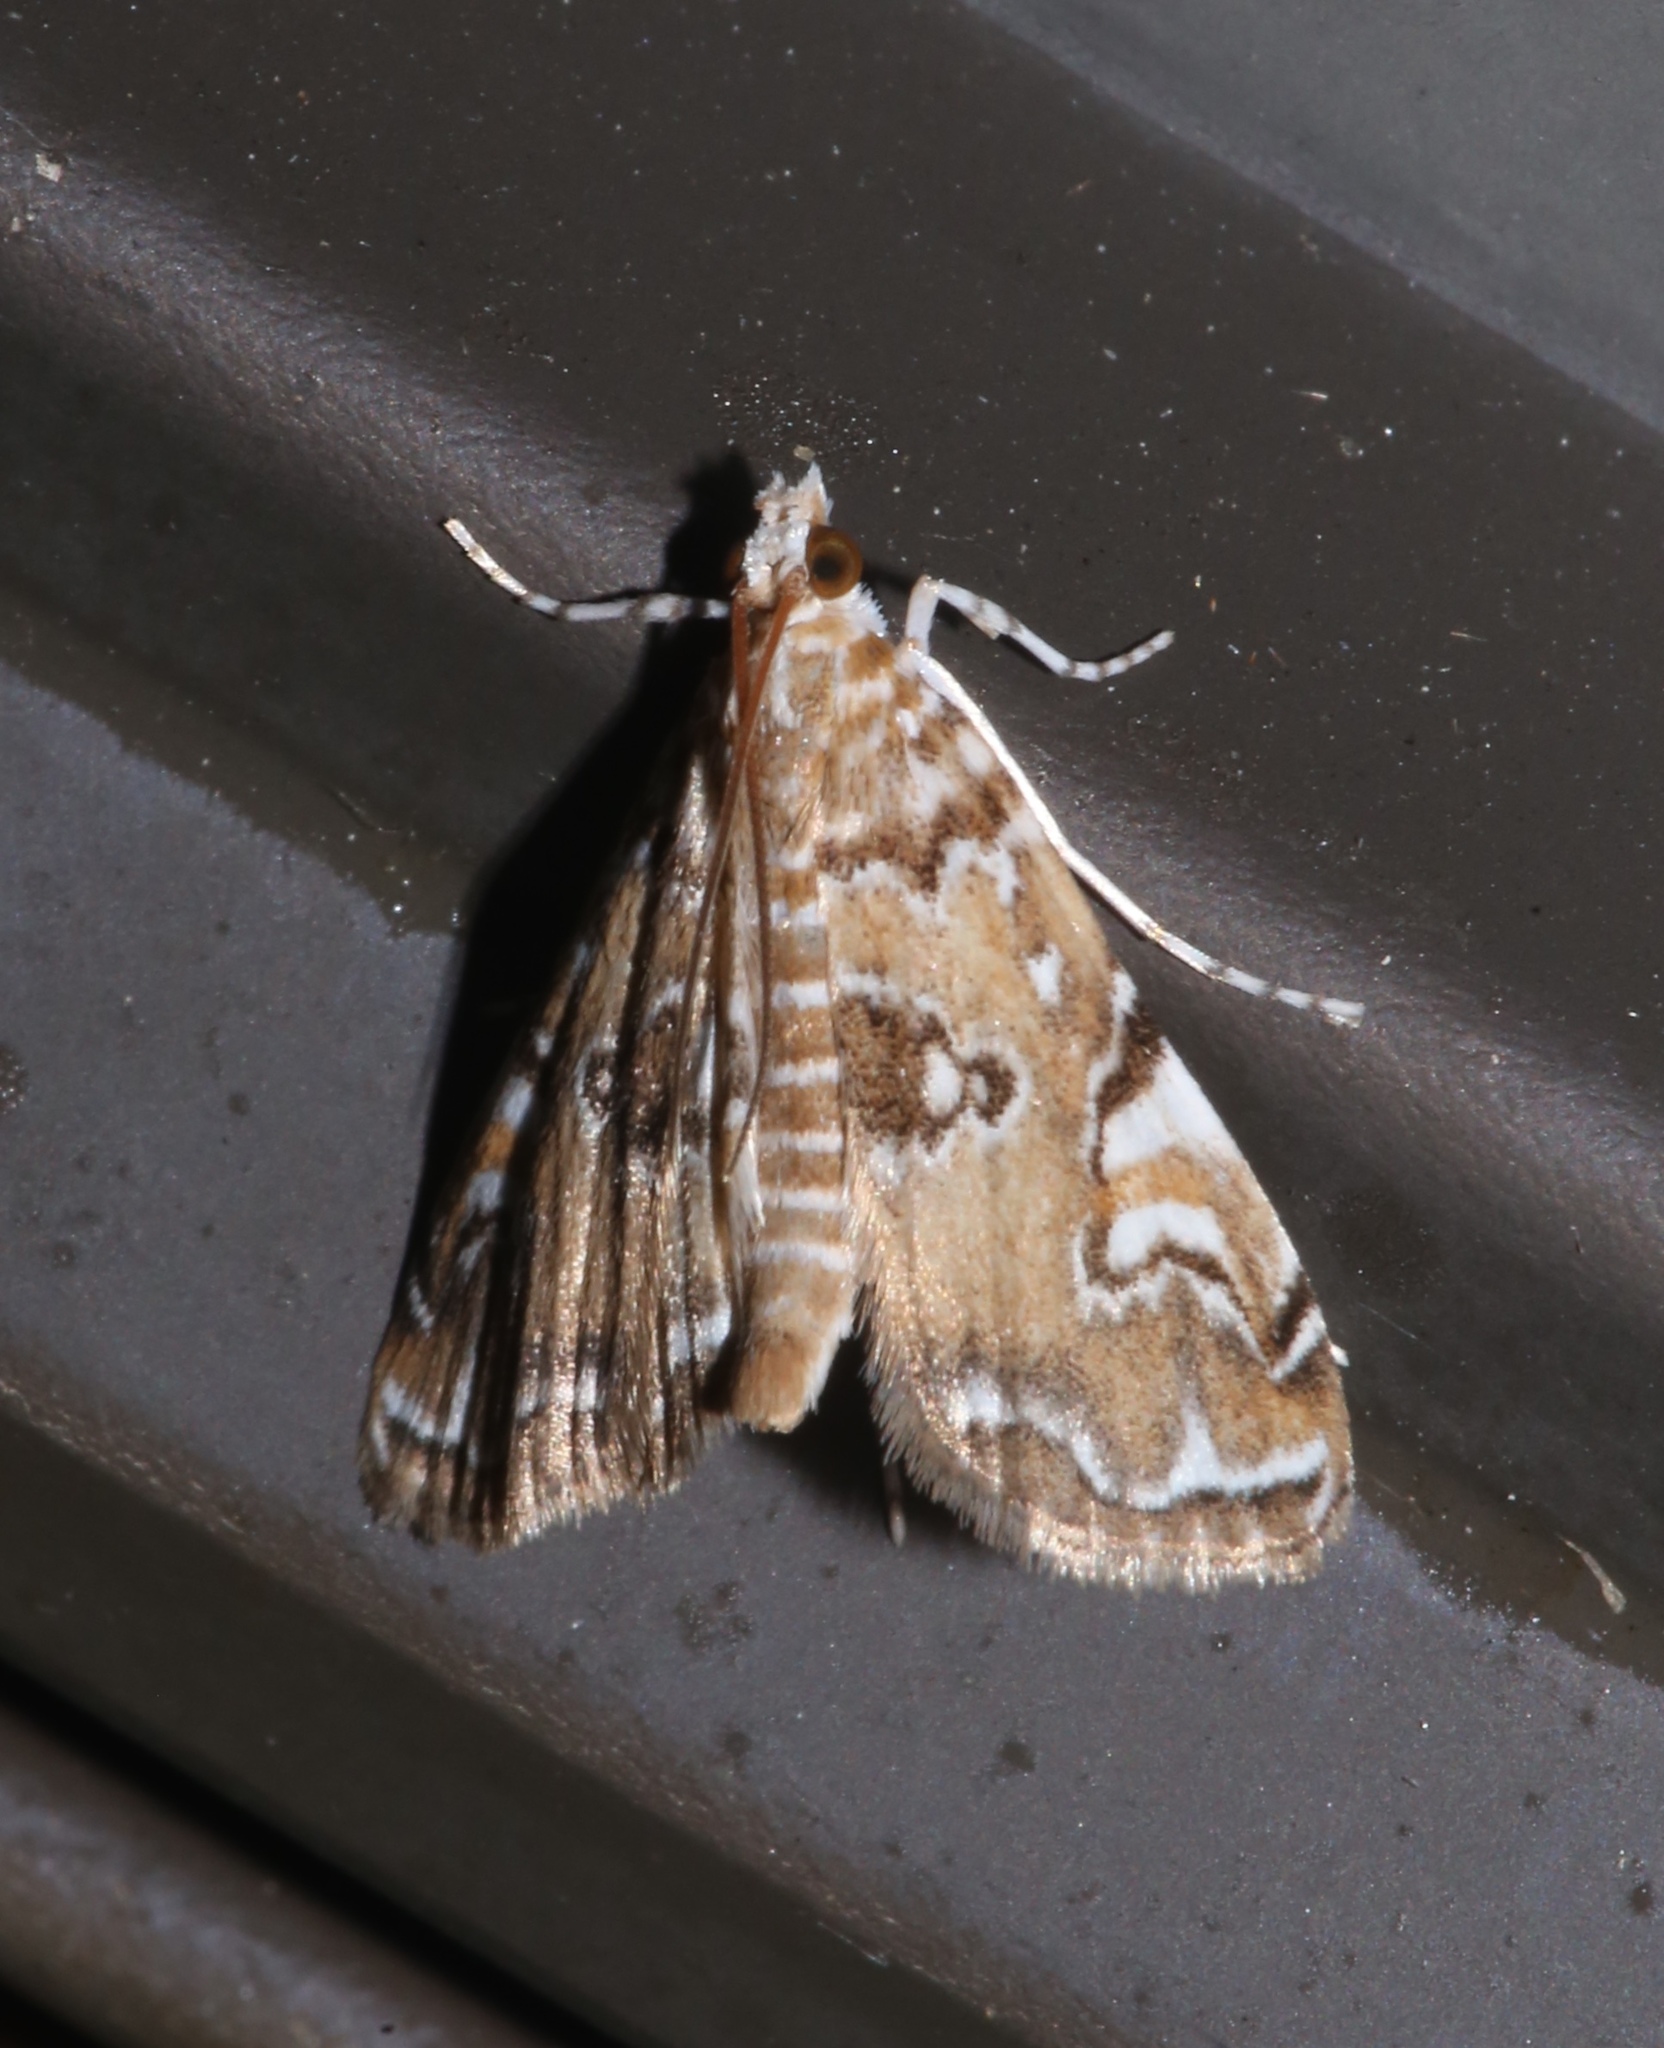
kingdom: Animalia
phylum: Arthropoda
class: Insecta
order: Lepidoptera
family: Crambidae
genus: Elophila
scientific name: Elophila gyralis
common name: Waterlily borer moth
